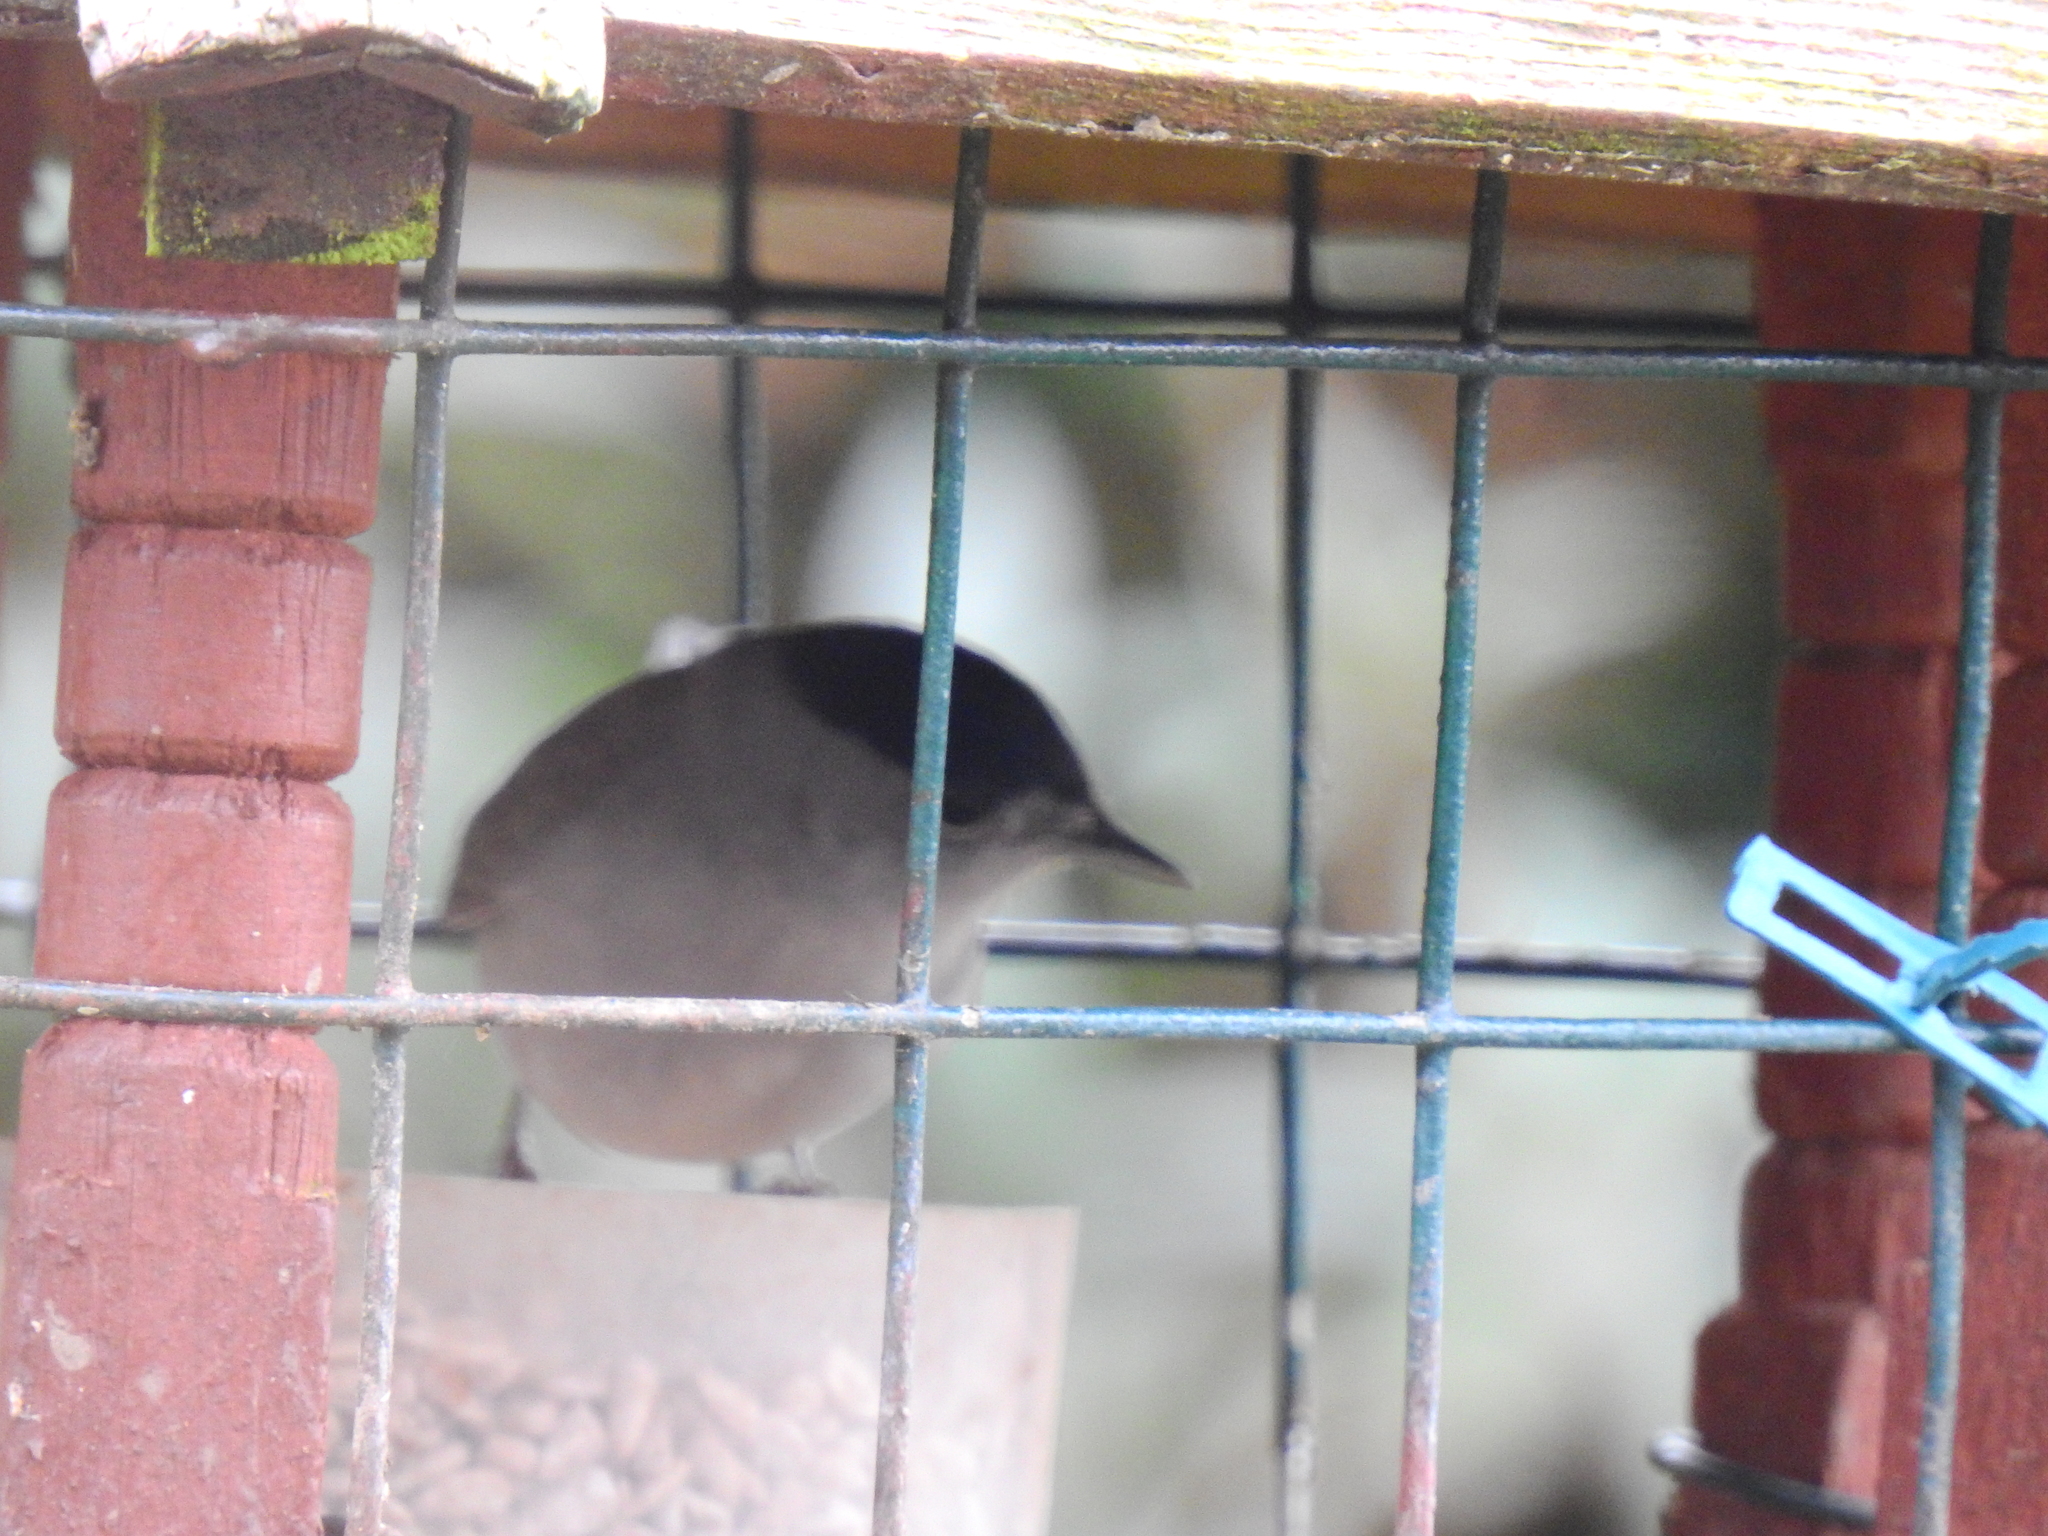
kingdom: Animalia
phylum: Chordata
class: Aves
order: Passeriformes
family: Sylviidae
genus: Sylvia
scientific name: Sylvia atricapilla
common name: Eurasian blackcap
